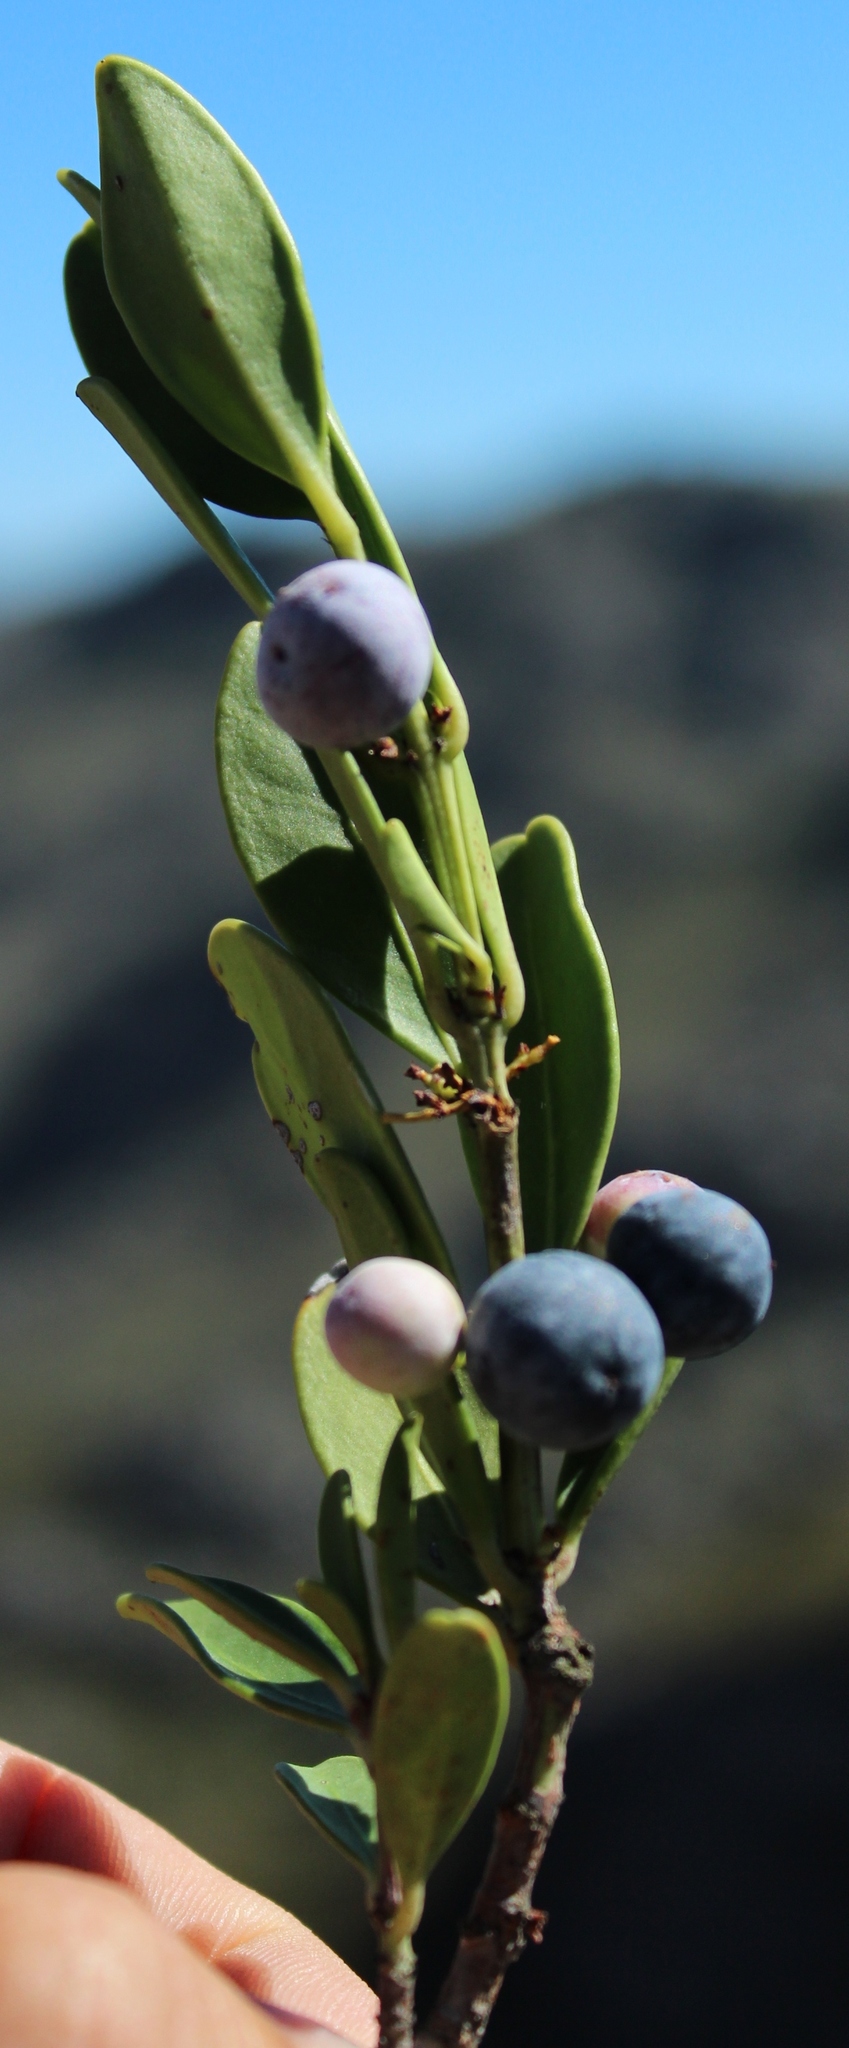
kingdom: Plantae
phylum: Tracheophyta
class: Magnoliopsida
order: Celastrales
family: Celastraceae
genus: Cassine
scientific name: Cassine parvifolia
